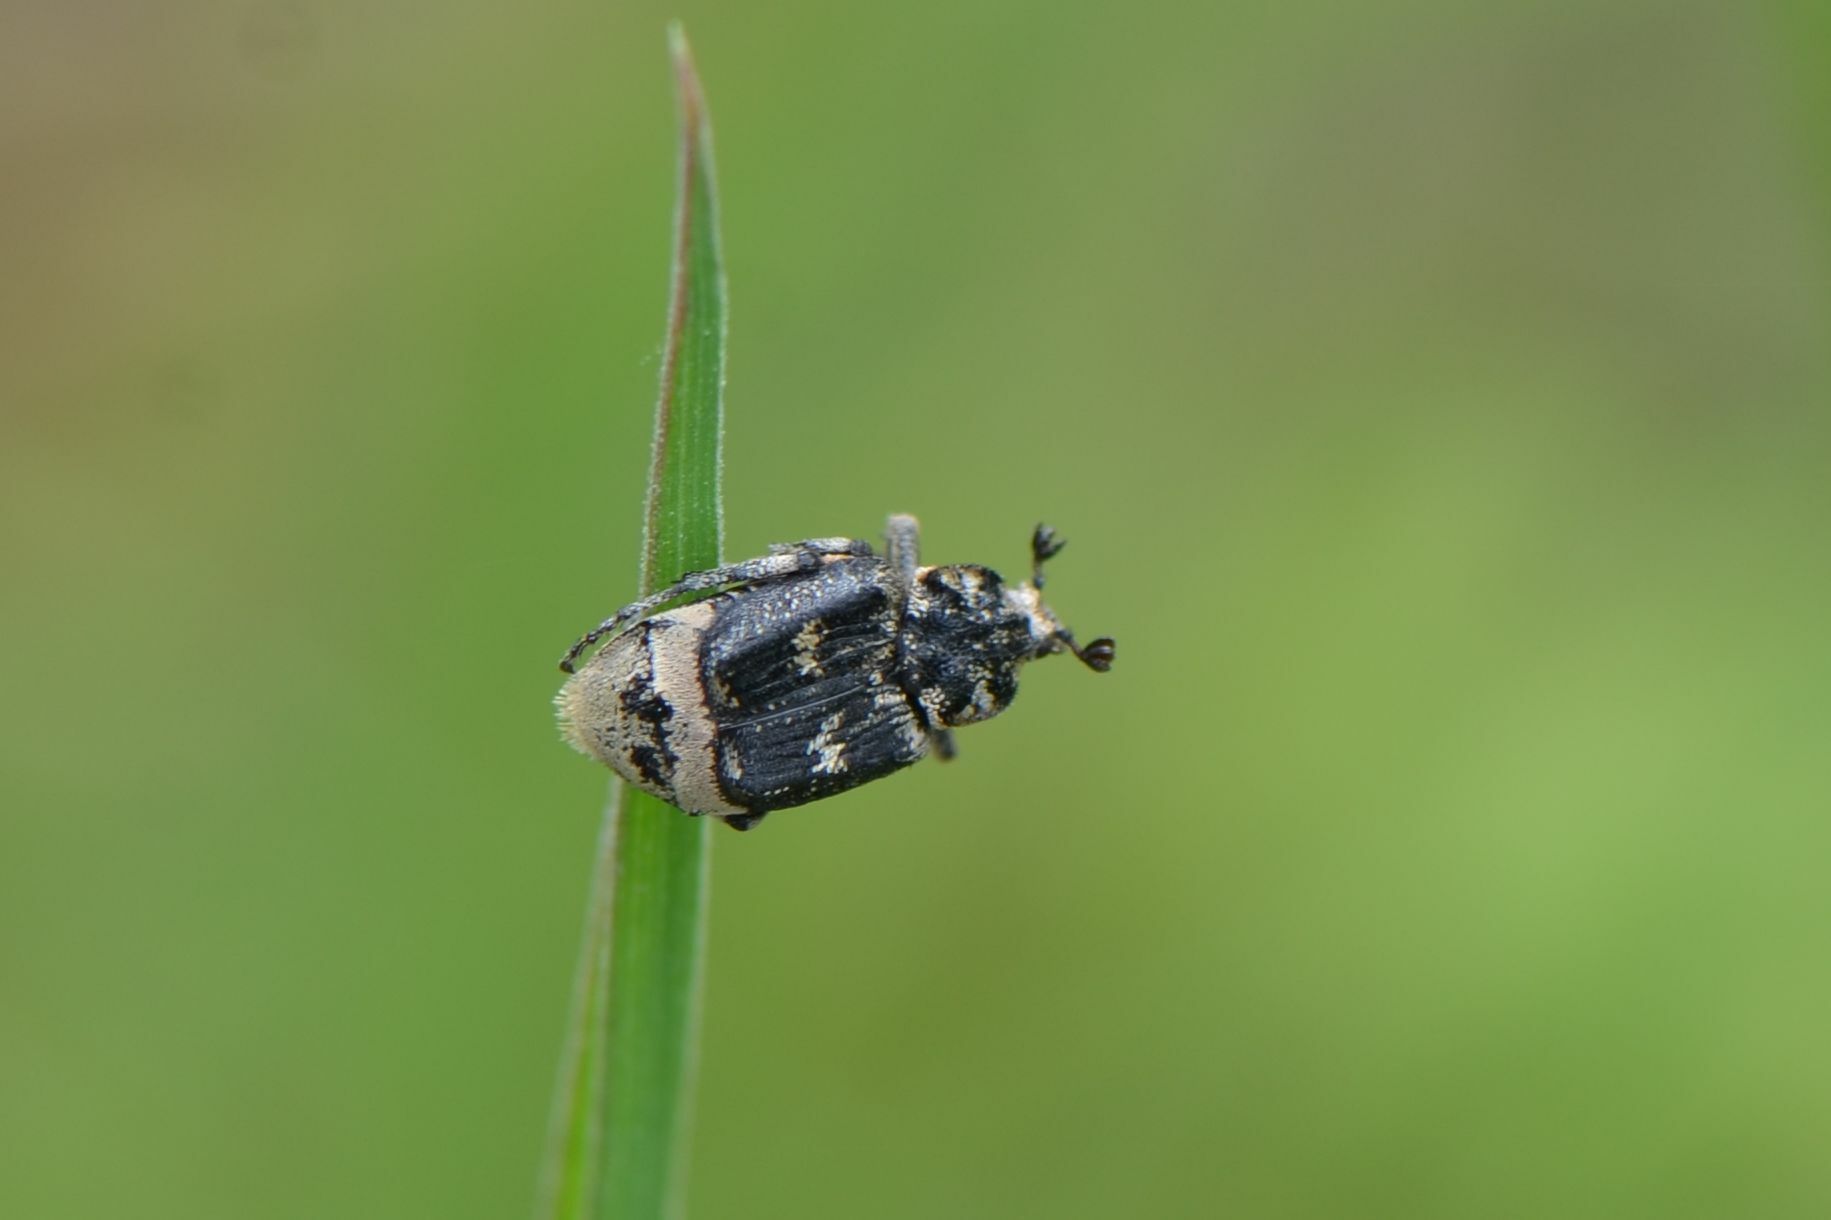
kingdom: Animalia
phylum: Arthropoda
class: Insecta
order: Coleoptera
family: Scarabaeidae
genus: Valgus
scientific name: Valgus hemipterus
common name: Bug flower chafer
